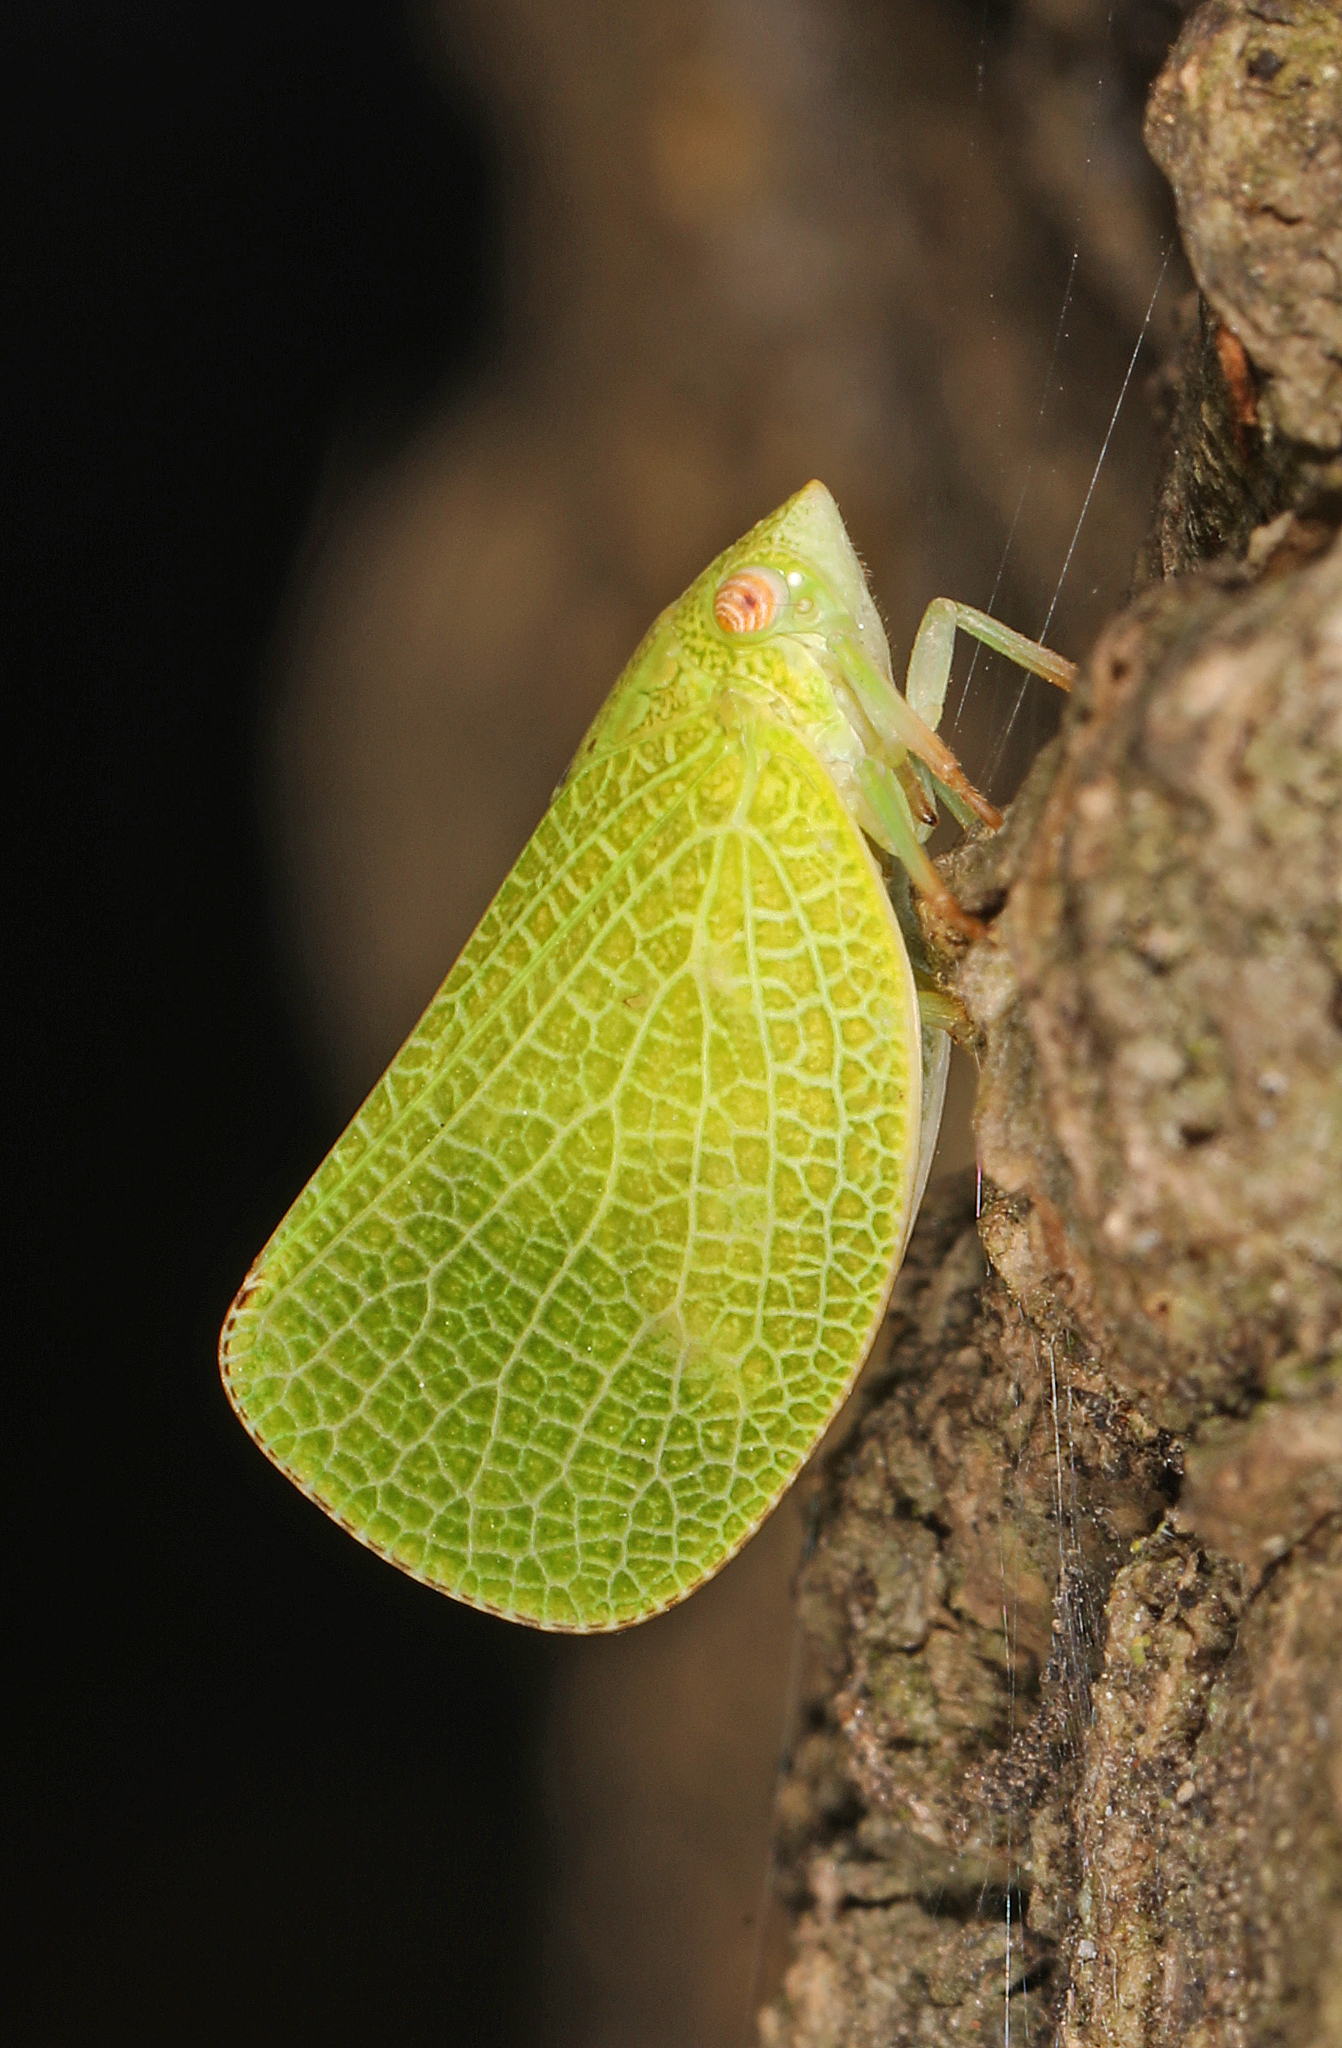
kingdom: Animalia
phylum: Arthropoda
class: Insecta
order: Hemiptera
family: Acanaloniidae
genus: Acanalonia
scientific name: Acanalonia conica
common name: Green cone-headed planthopper
